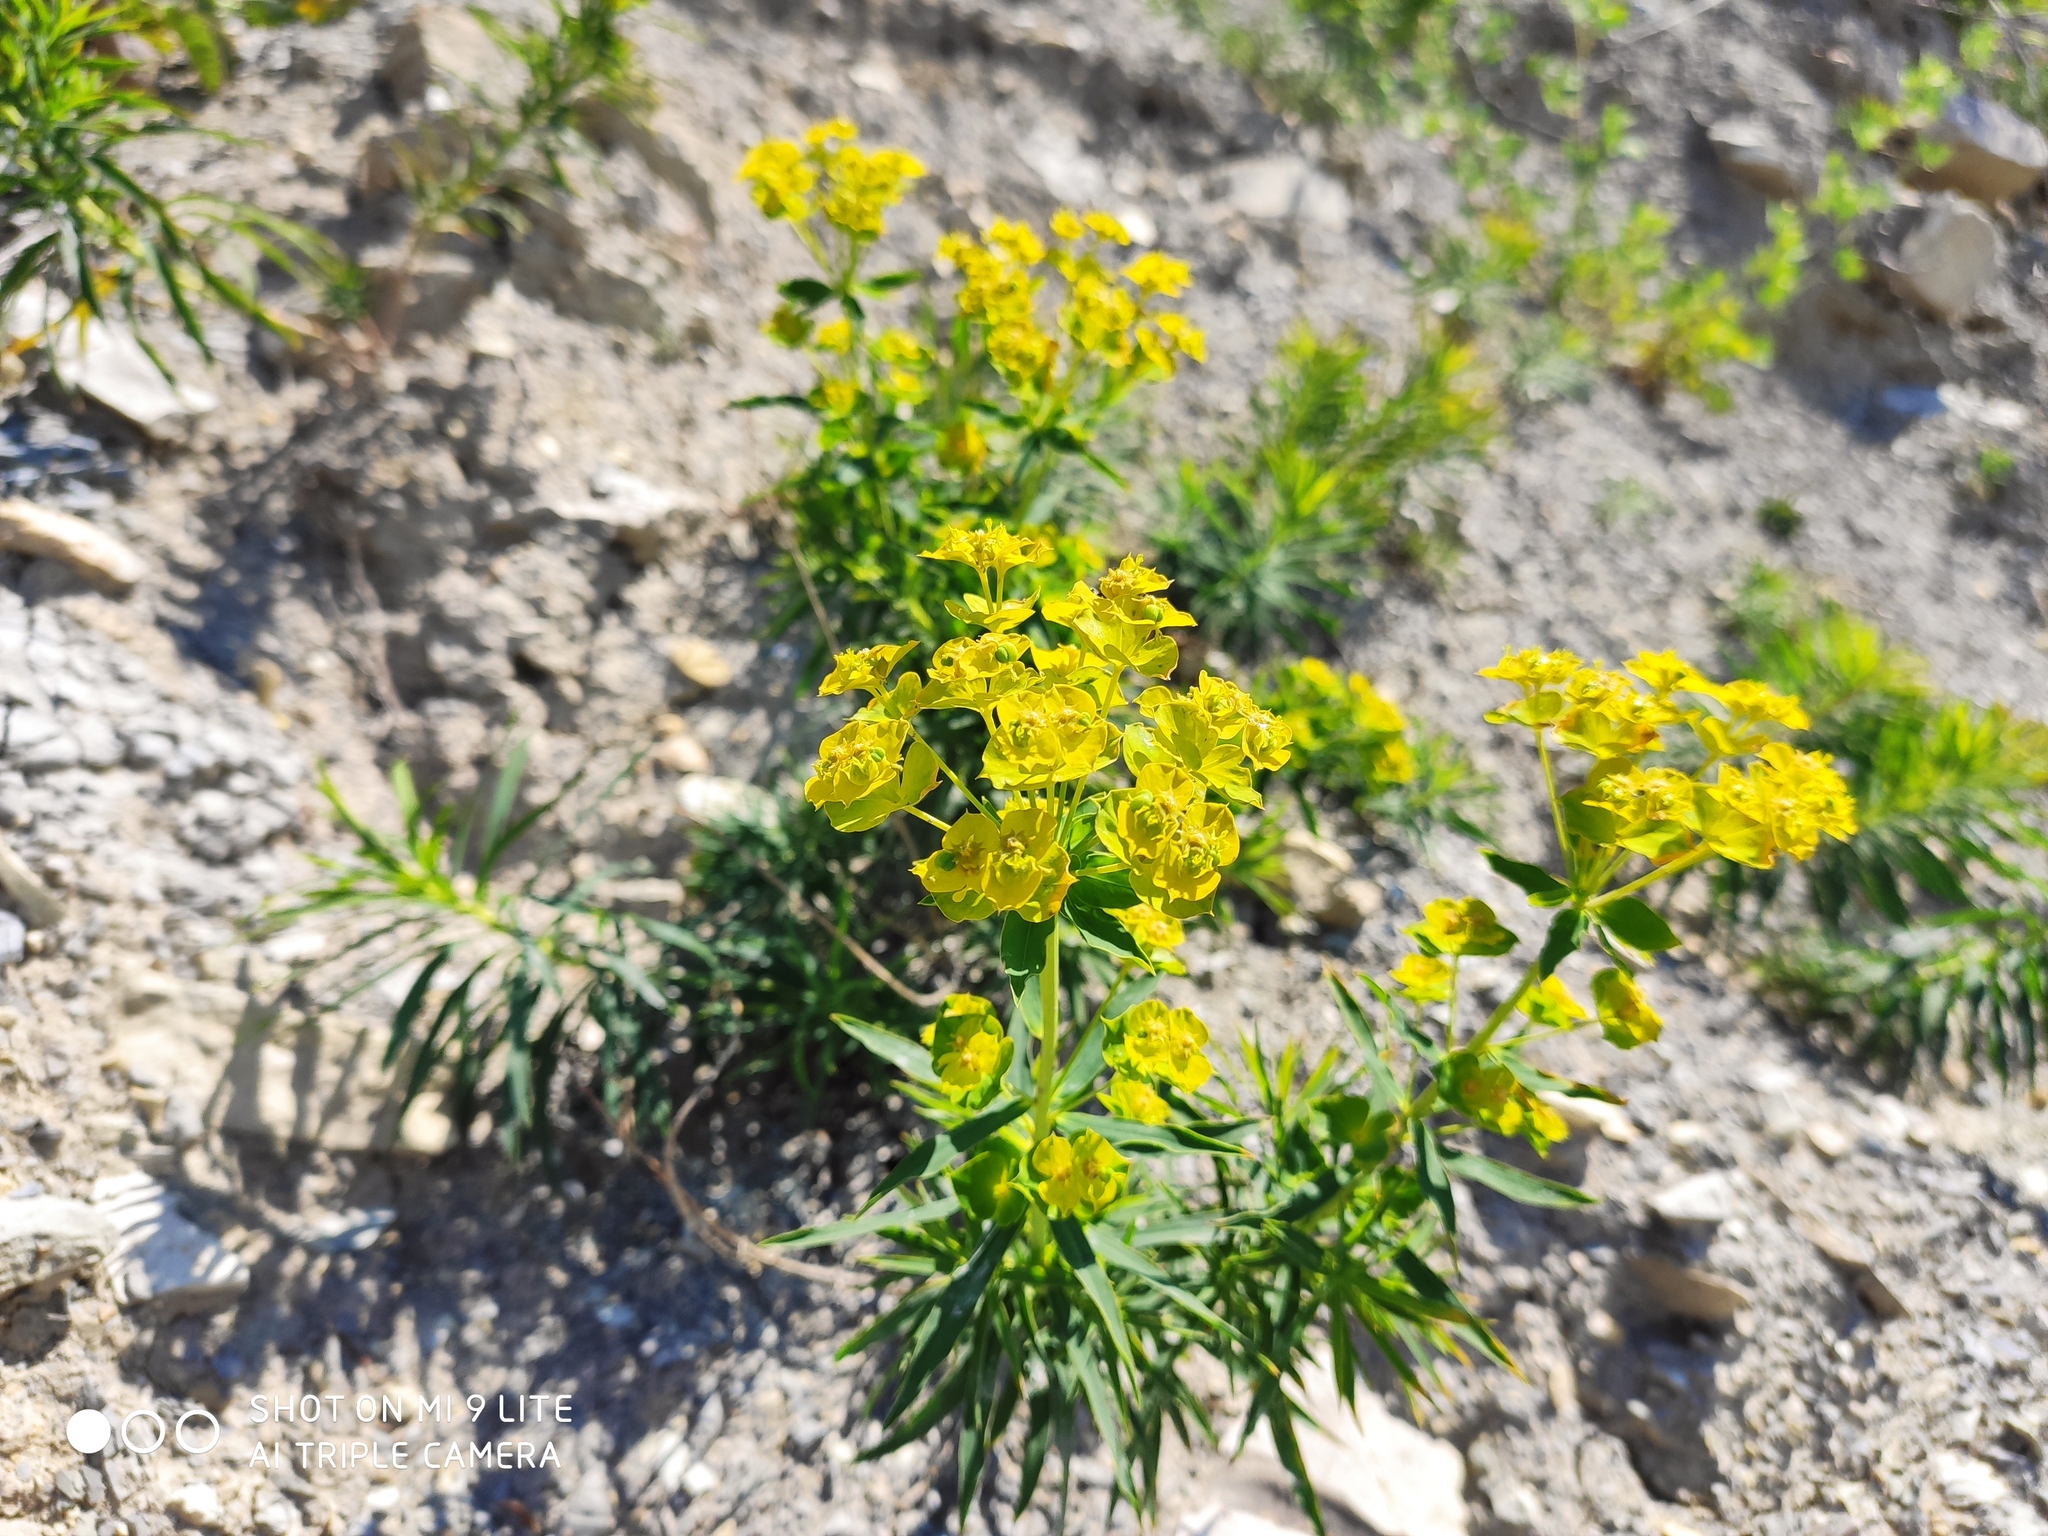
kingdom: Plantae
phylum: Tracheophyta
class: Magnoliopsida
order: Malpighiales
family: Euphorbiaceae
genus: Euphorbia
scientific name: Euphorbia virgata
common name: Leafy spurge
